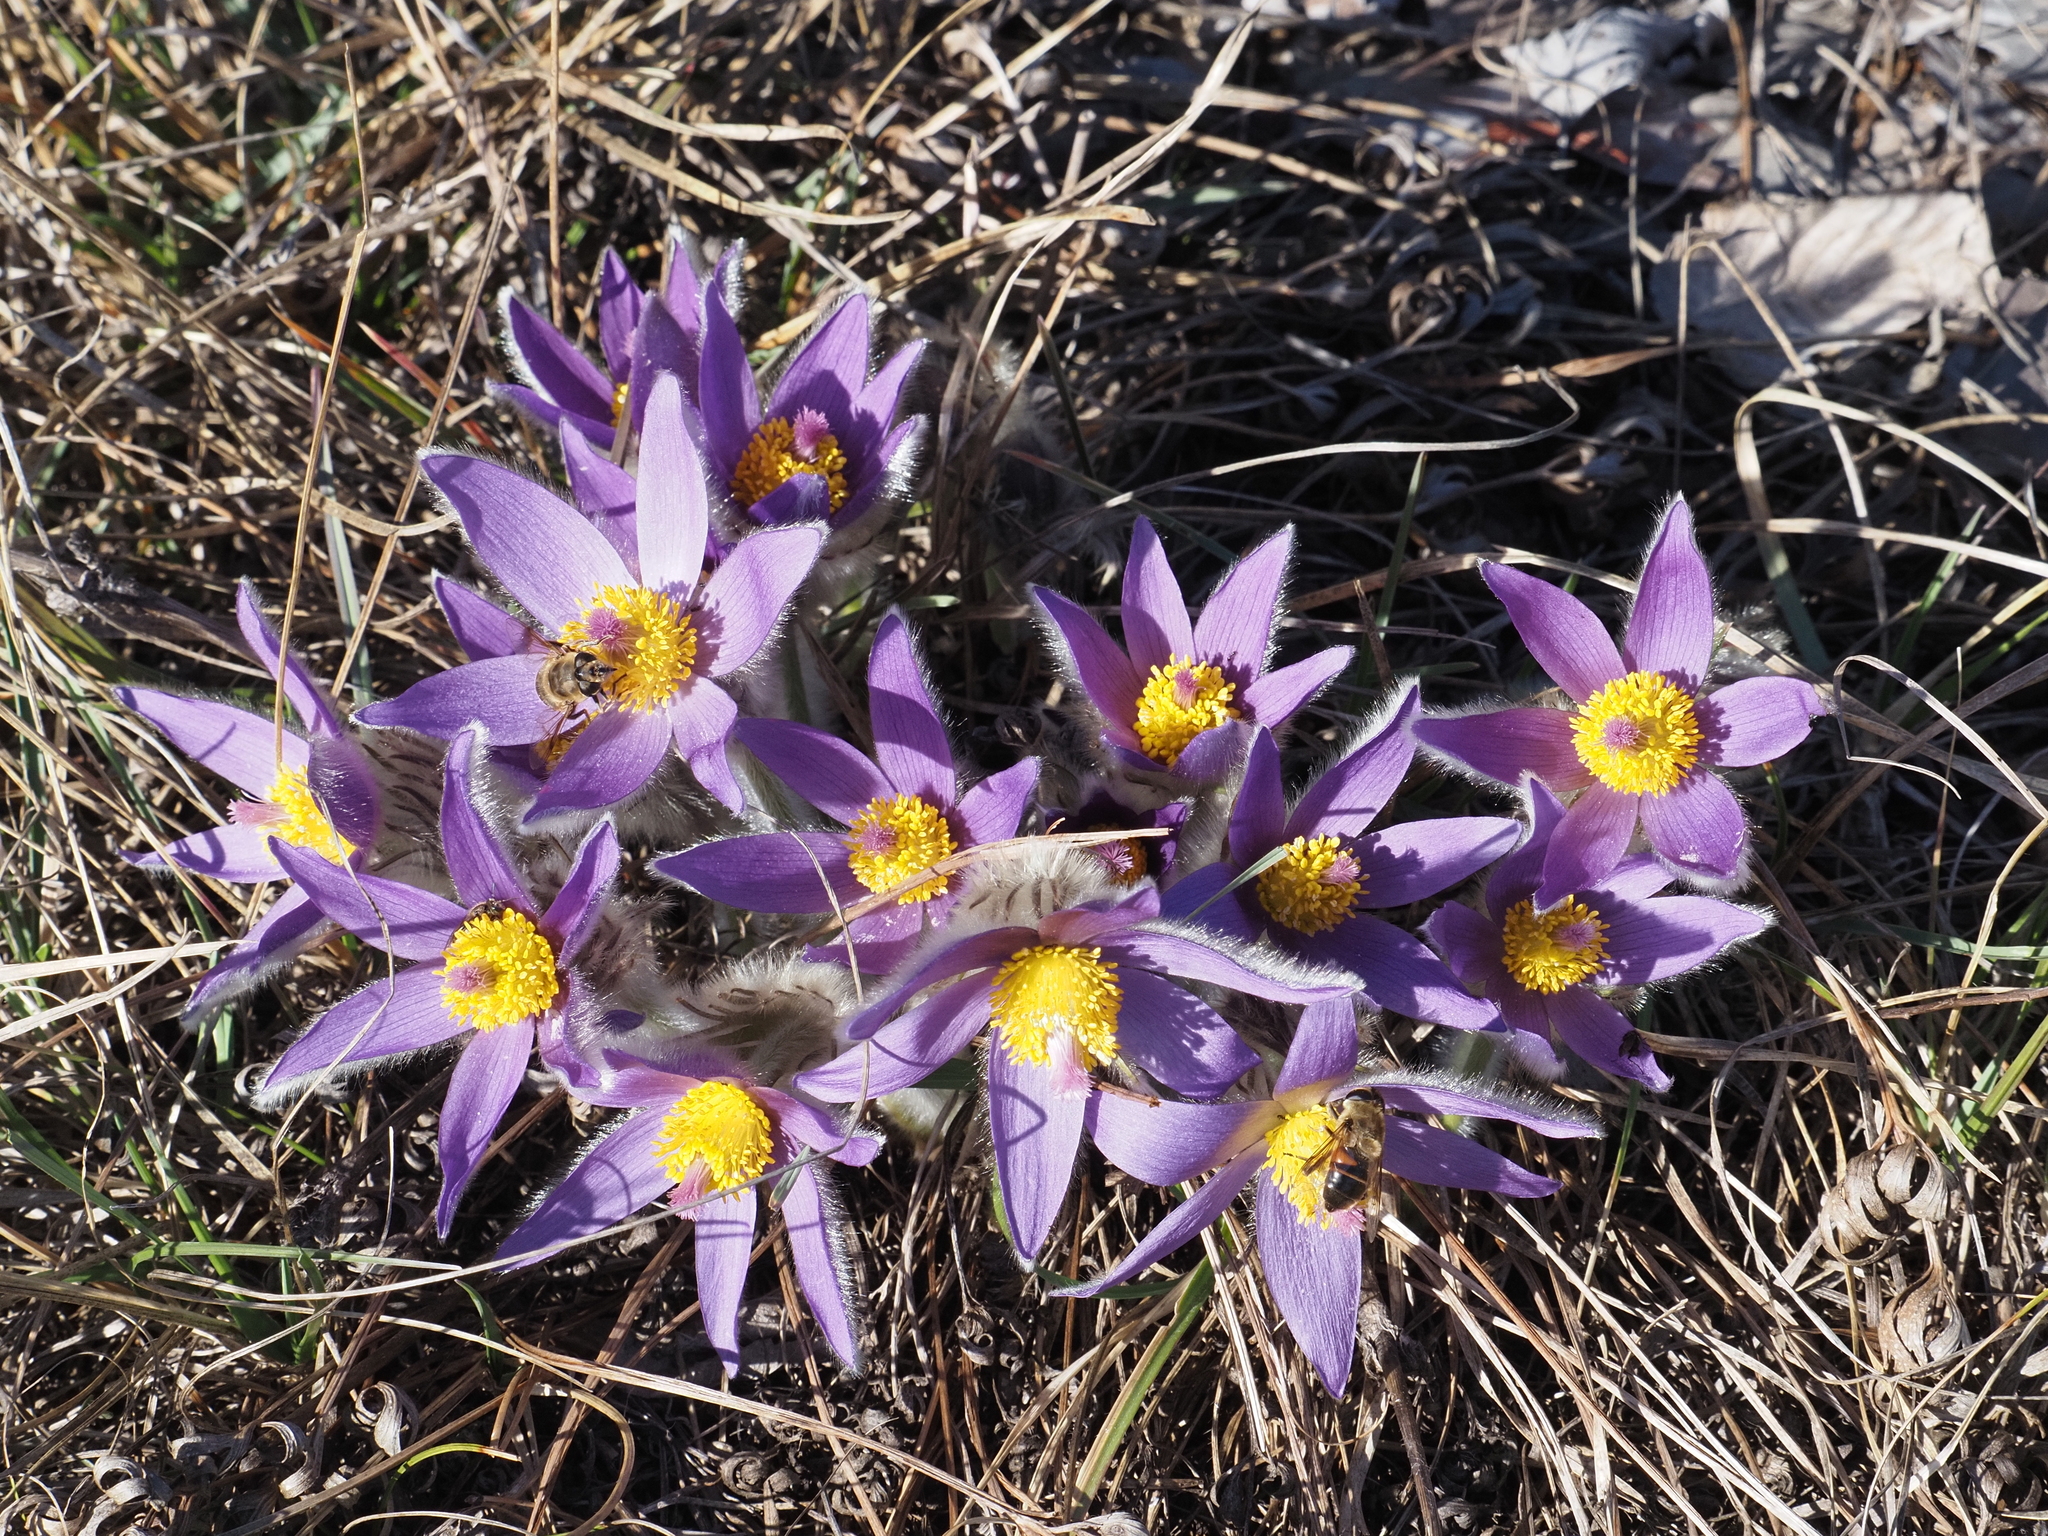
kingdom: Plantae
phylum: Tracheophyta
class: Magnoliopsida
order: Ranunculales
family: Ranunculaceae
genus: Pulsatilla
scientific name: Pulsatilla grandis
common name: Greater pasque flower
